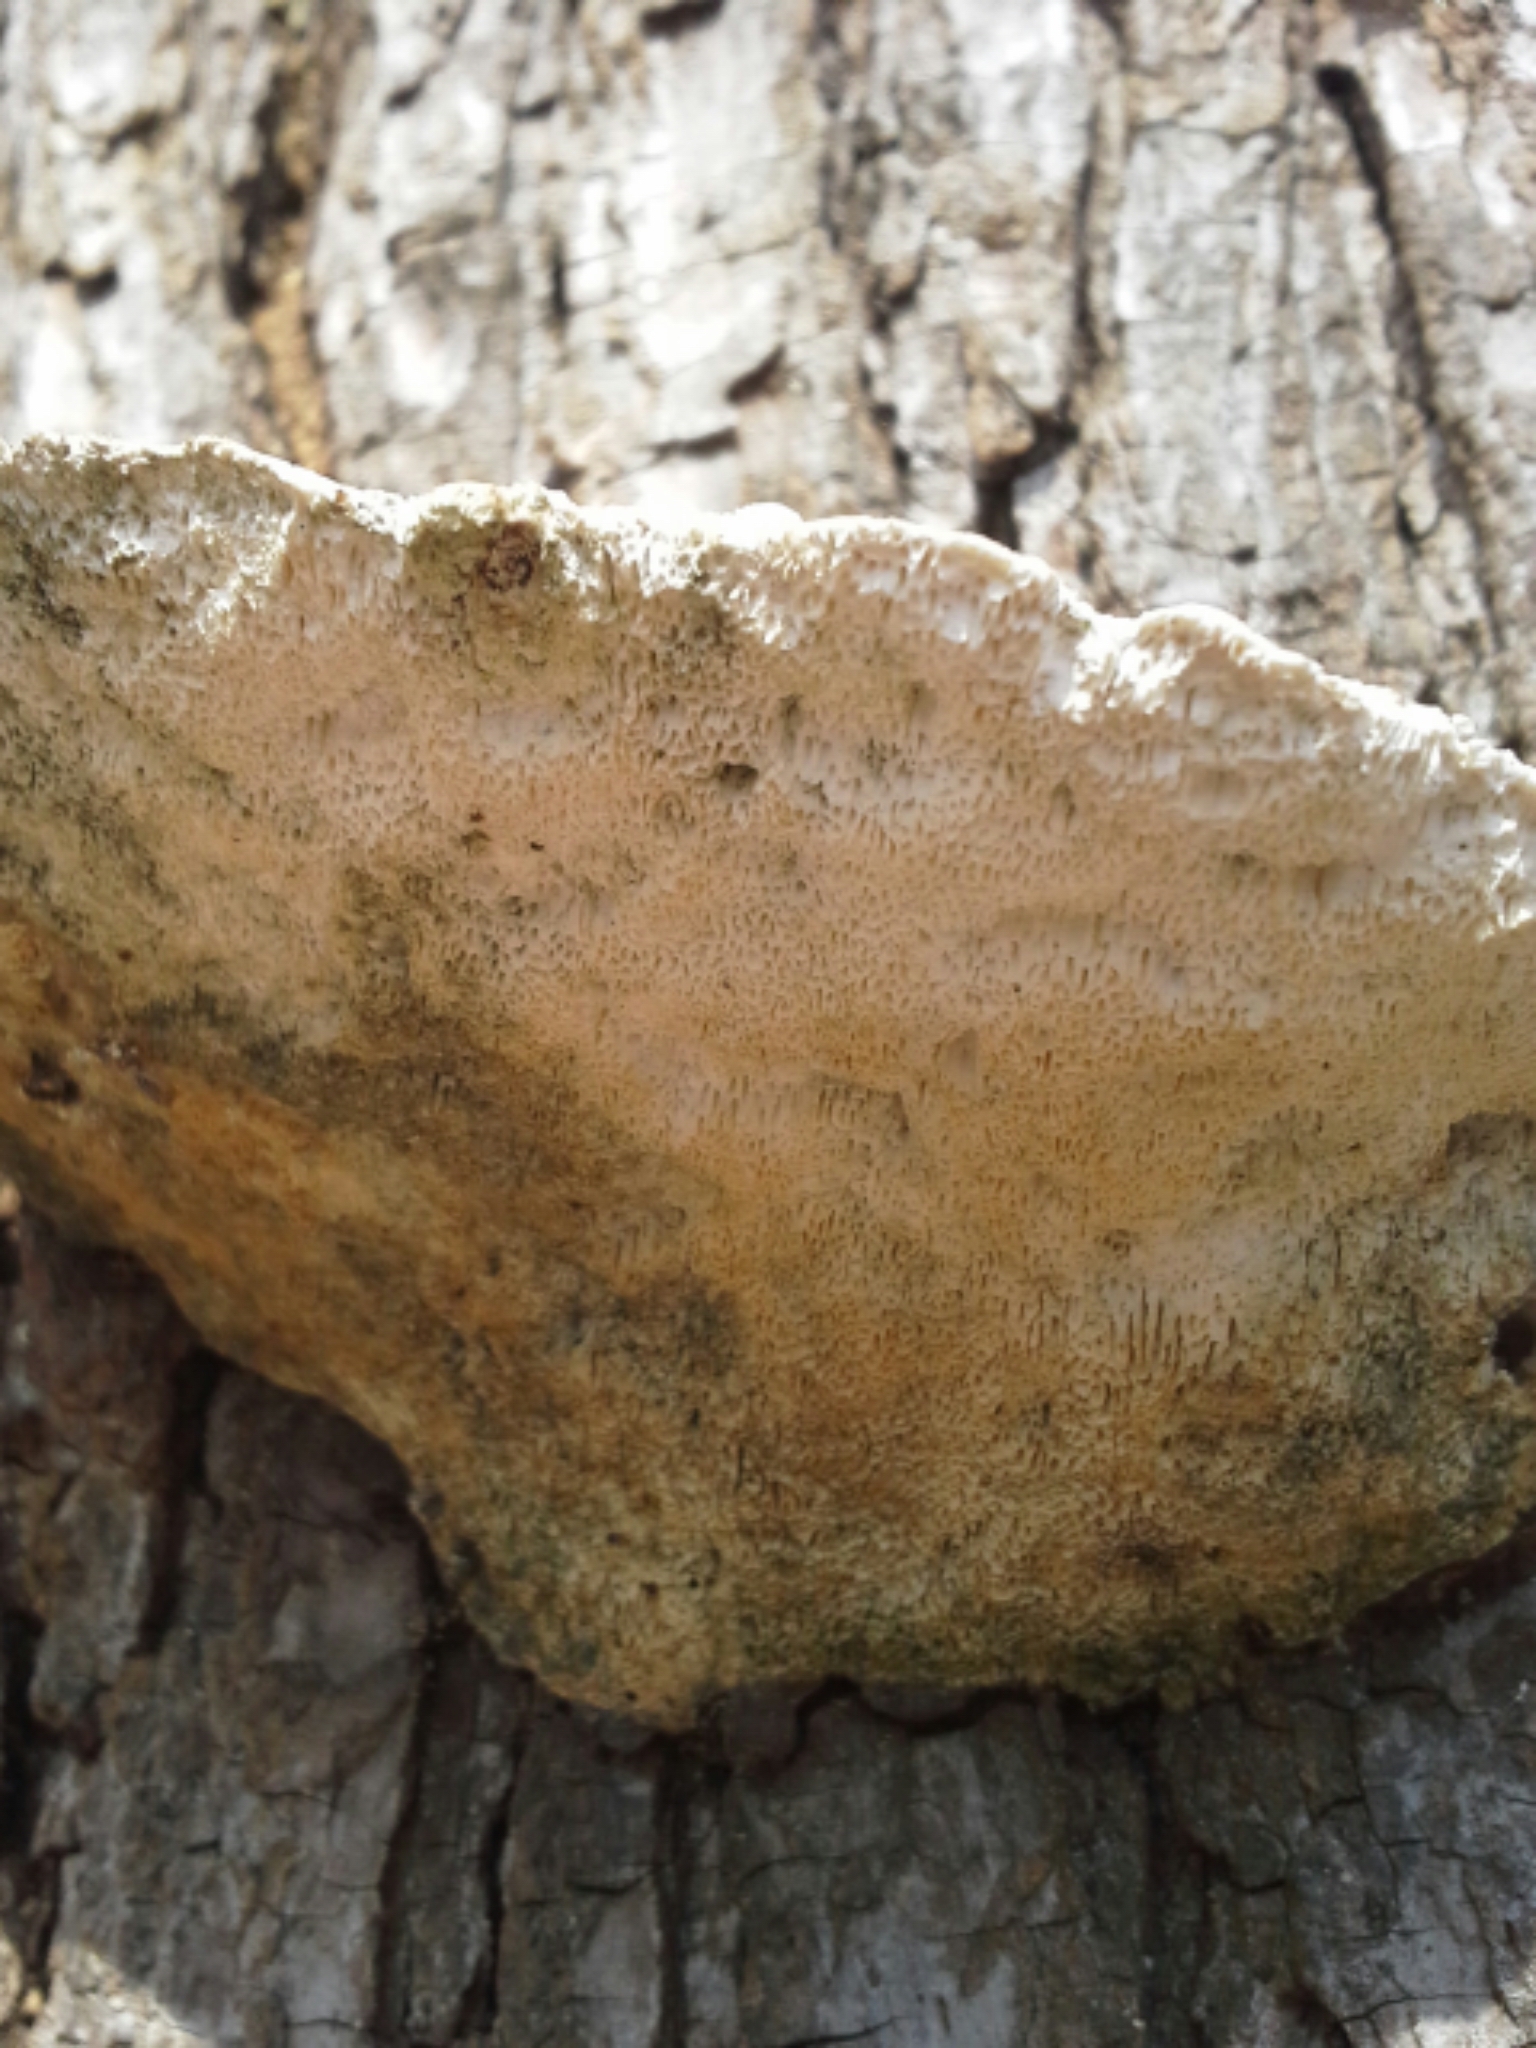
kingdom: Fungi
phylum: Basidiomycota
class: Agaricomycetes
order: Polyporales
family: Polyporaceae
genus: Trametes
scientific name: Trametes gibbosa
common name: Lumpy bracket
